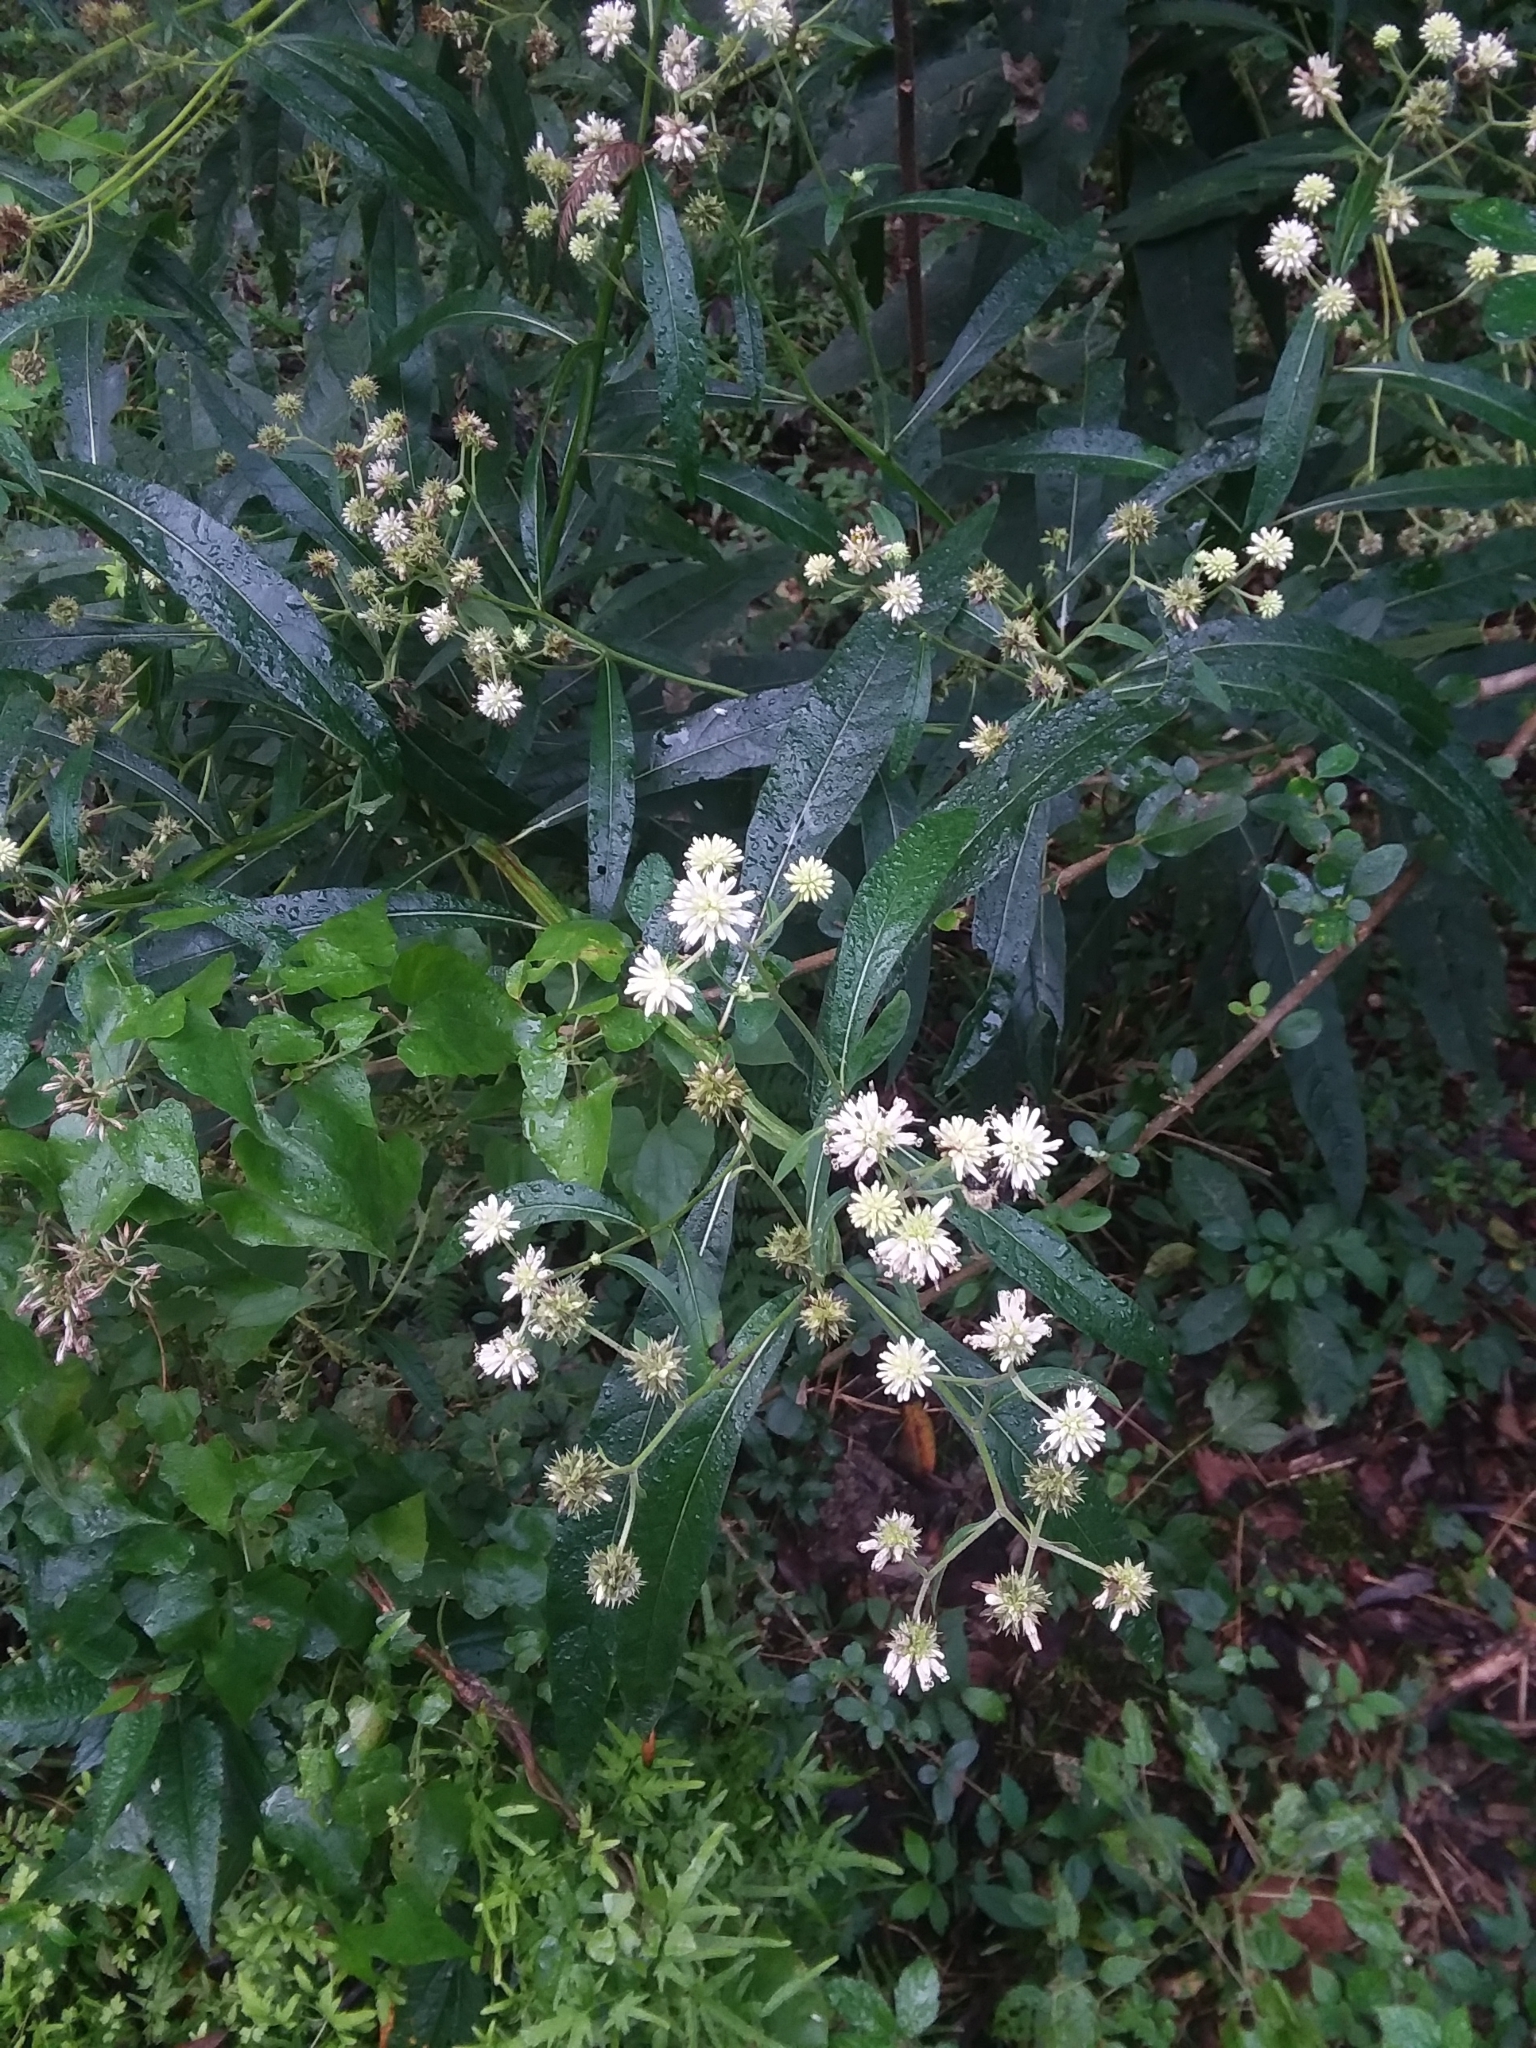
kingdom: Plantae
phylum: Tracheophyta
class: Magnoliopsida
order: Asterales
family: Asteraceae
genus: Verbesina
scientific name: Verbesina walteri
